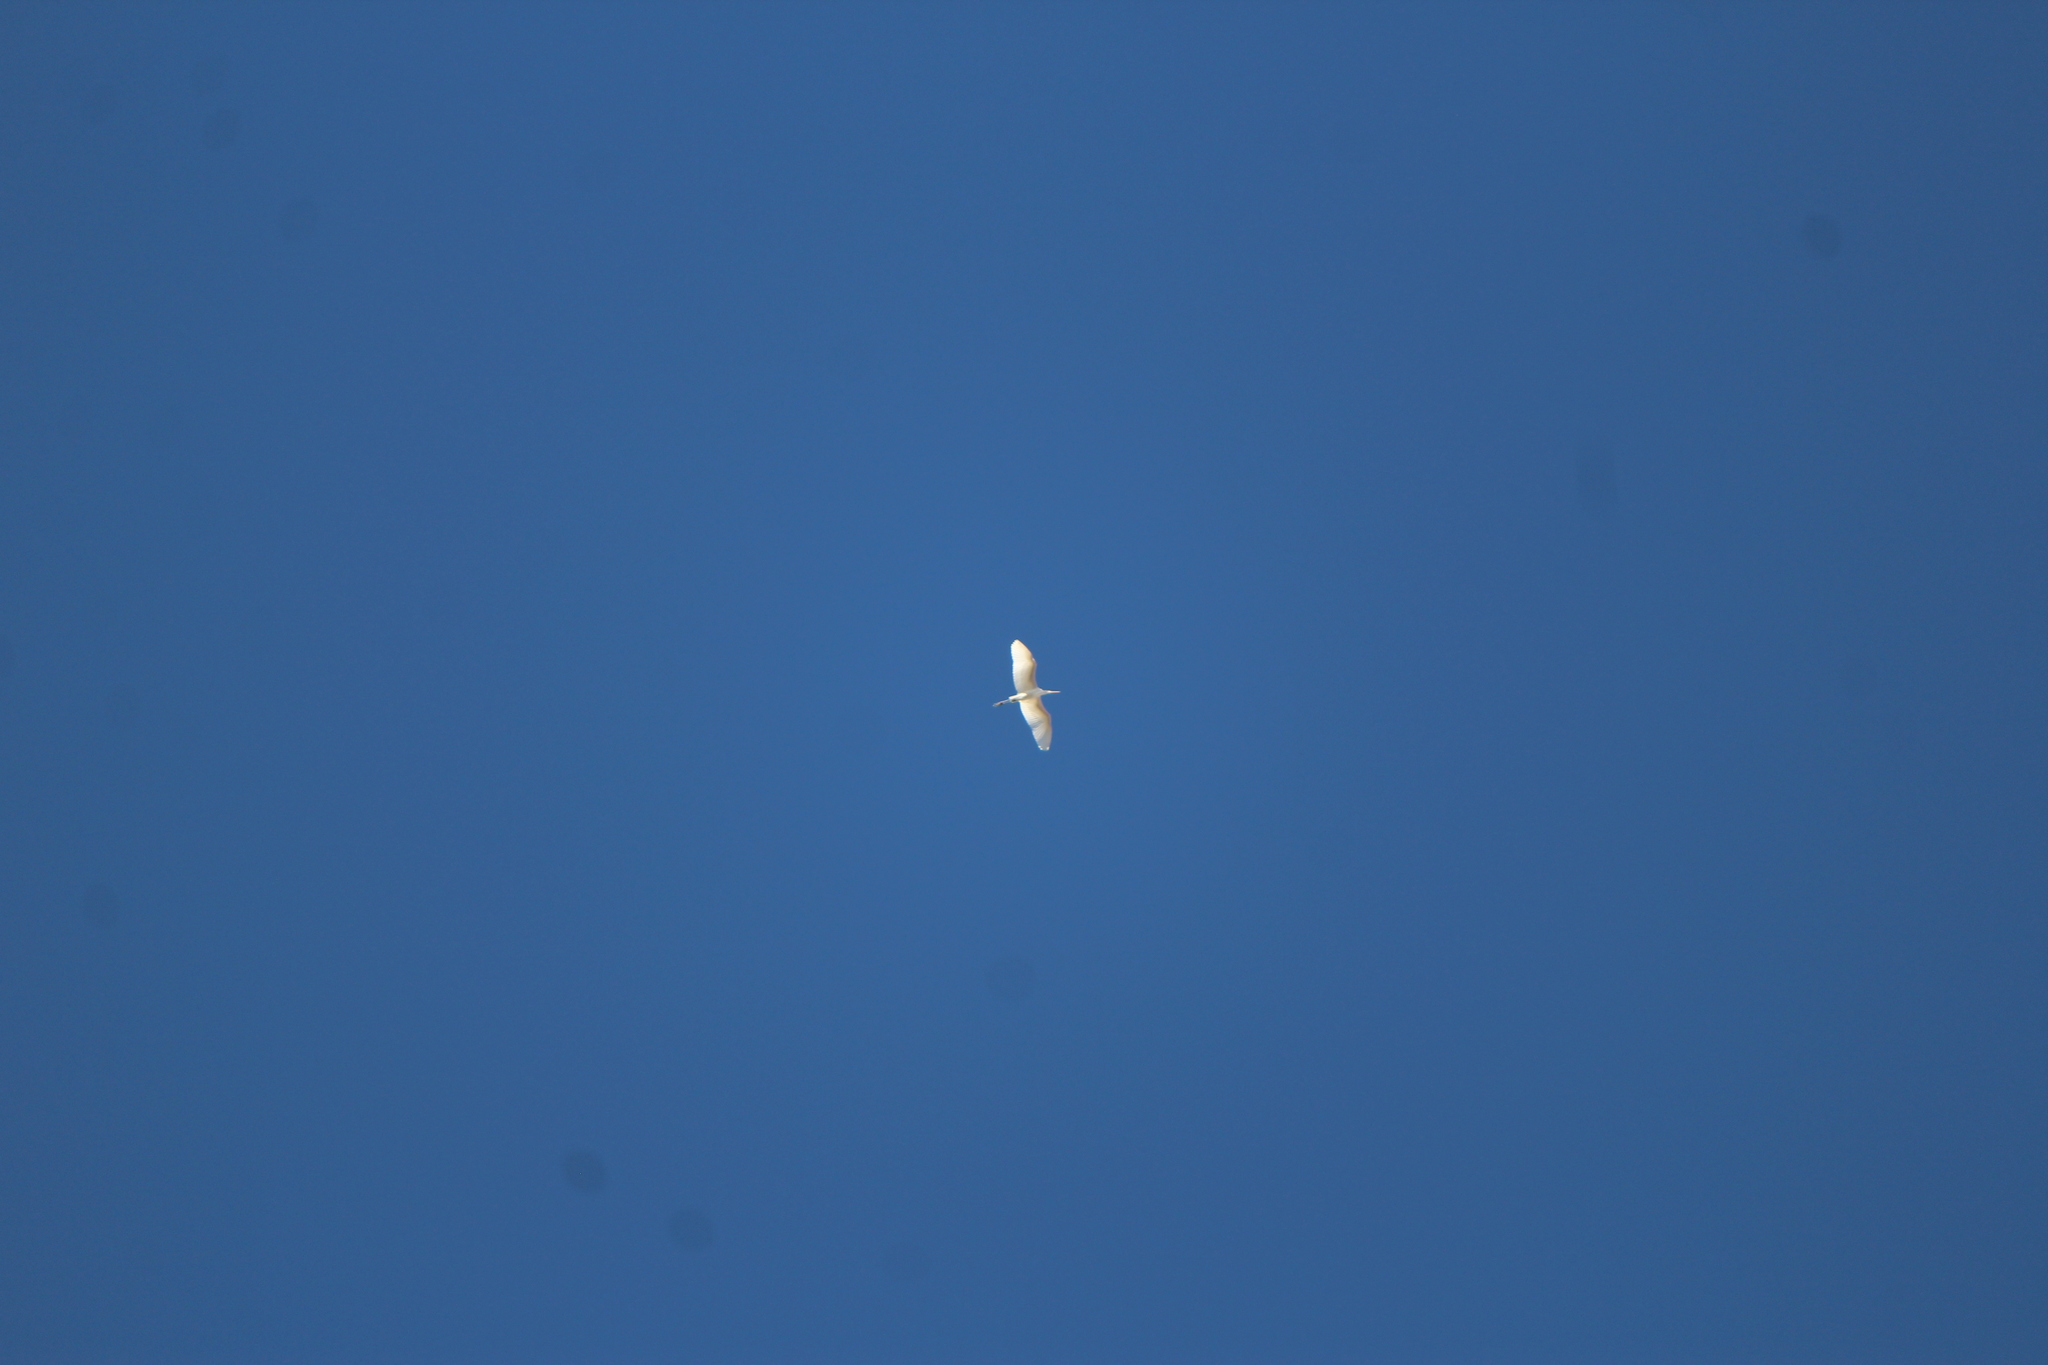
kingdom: Animalia
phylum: Chordata
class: Aves
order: Pelecaniformes
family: Ardeidae
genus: Bubulcus
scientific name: Bubulcus ibis
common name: Cattle egret
